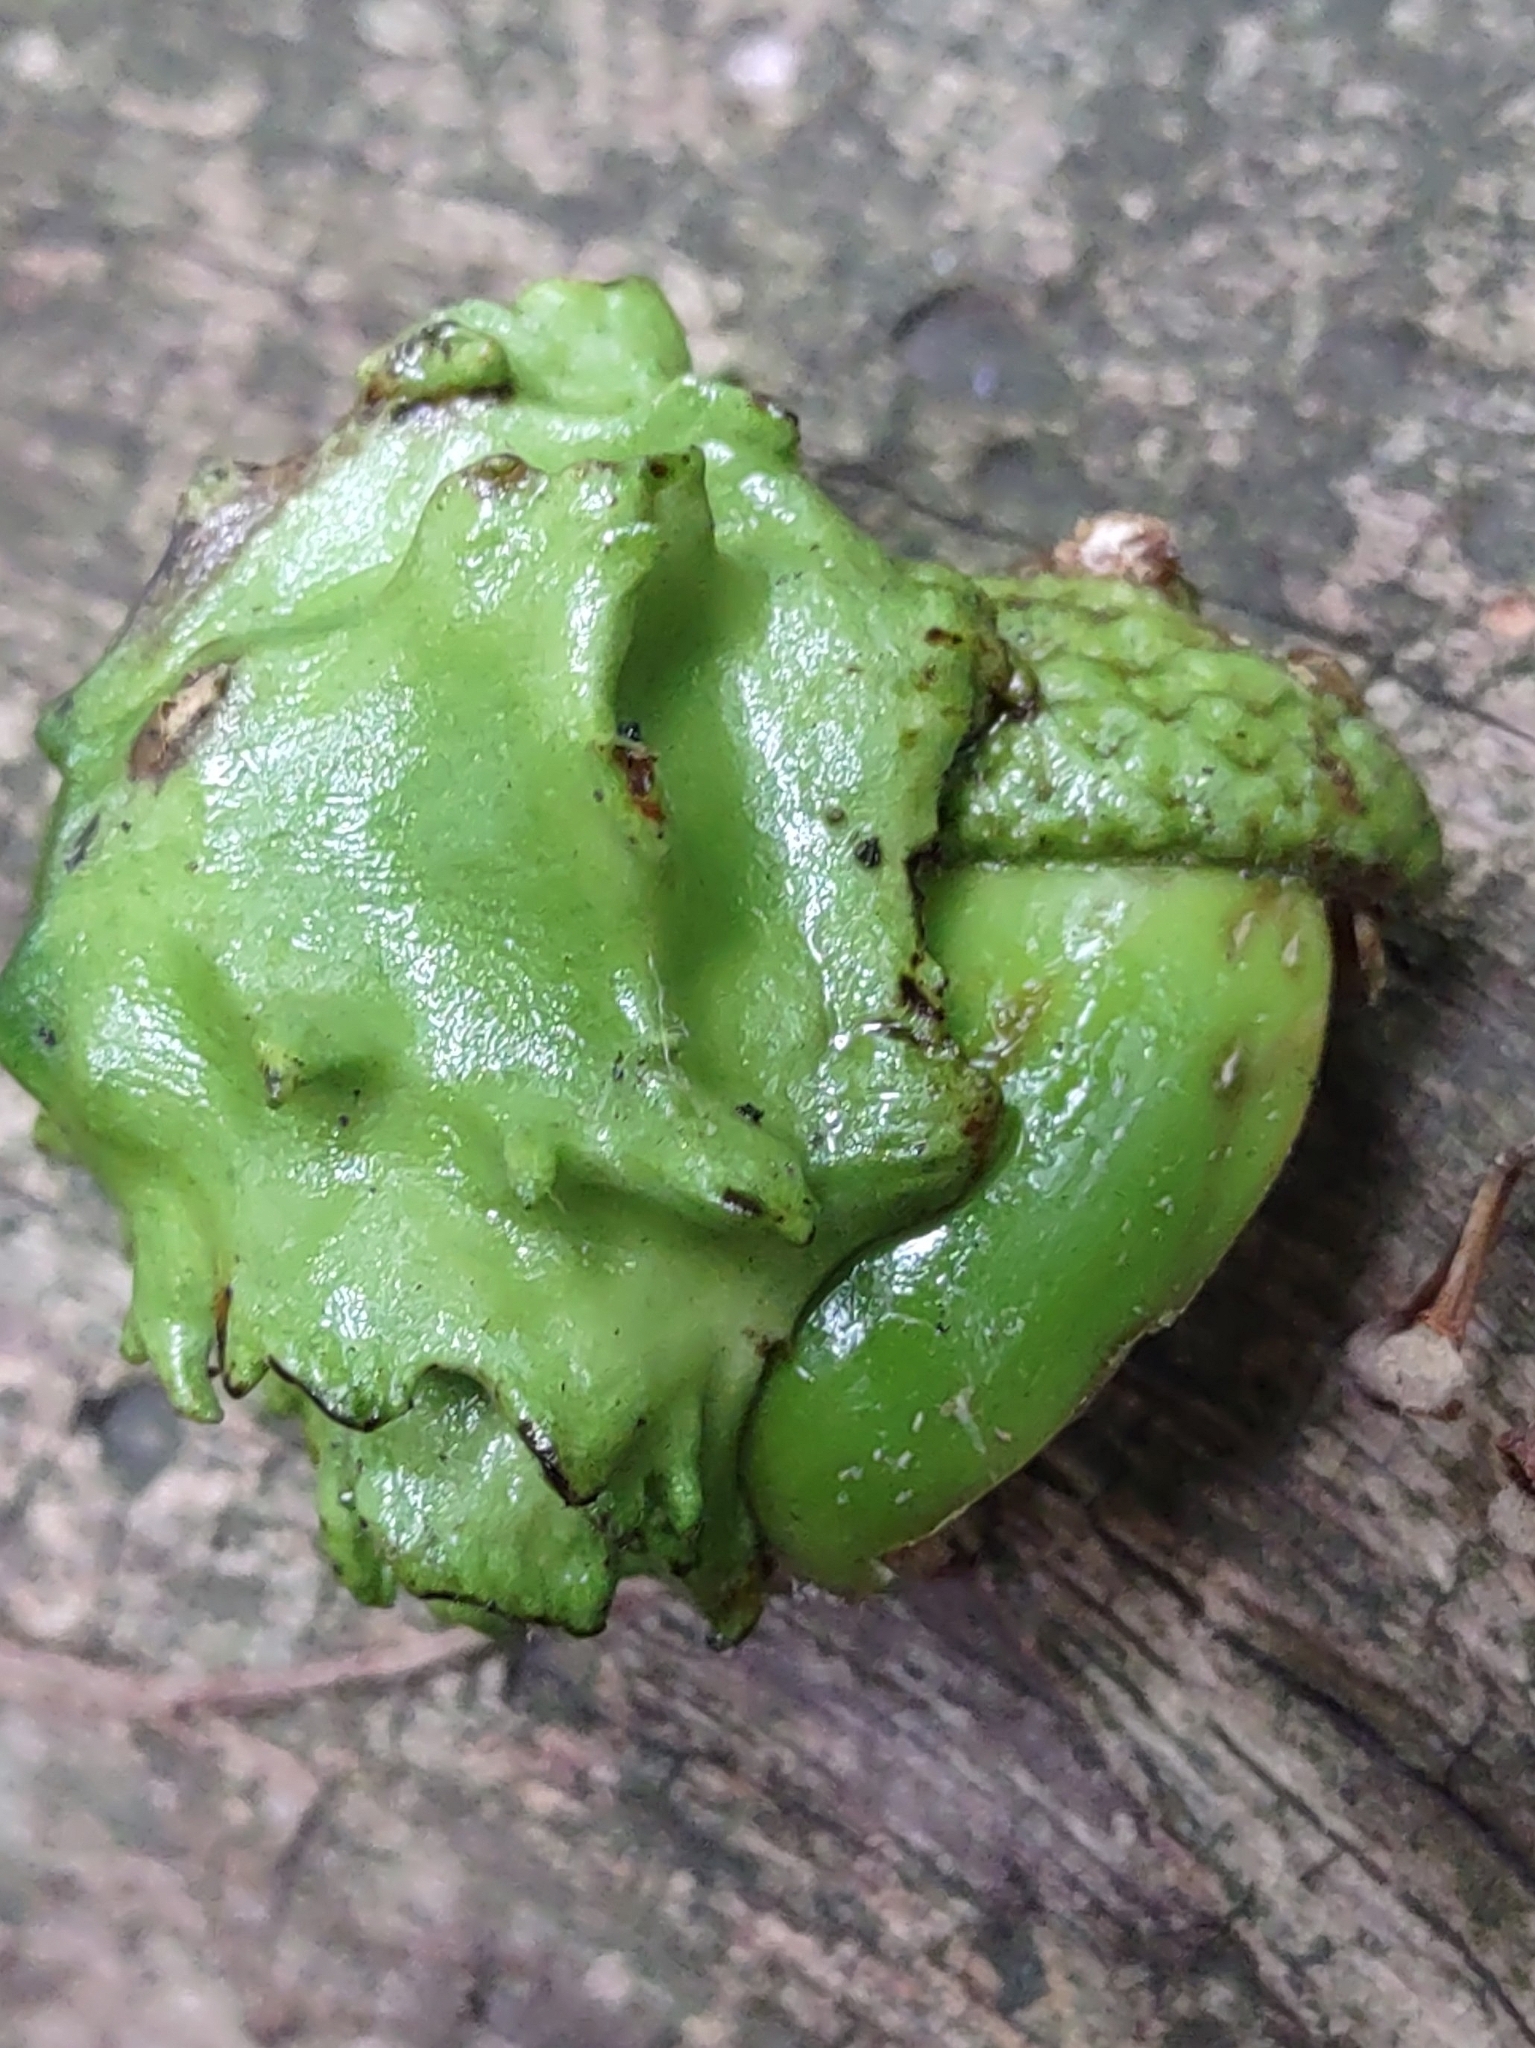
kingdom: Animalia
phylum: Arthropoda
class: Insecta
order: Hymenoptera
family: Cynipidae
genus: Andricus
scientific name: Andricus quercuscalicis
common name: Knopper gall
